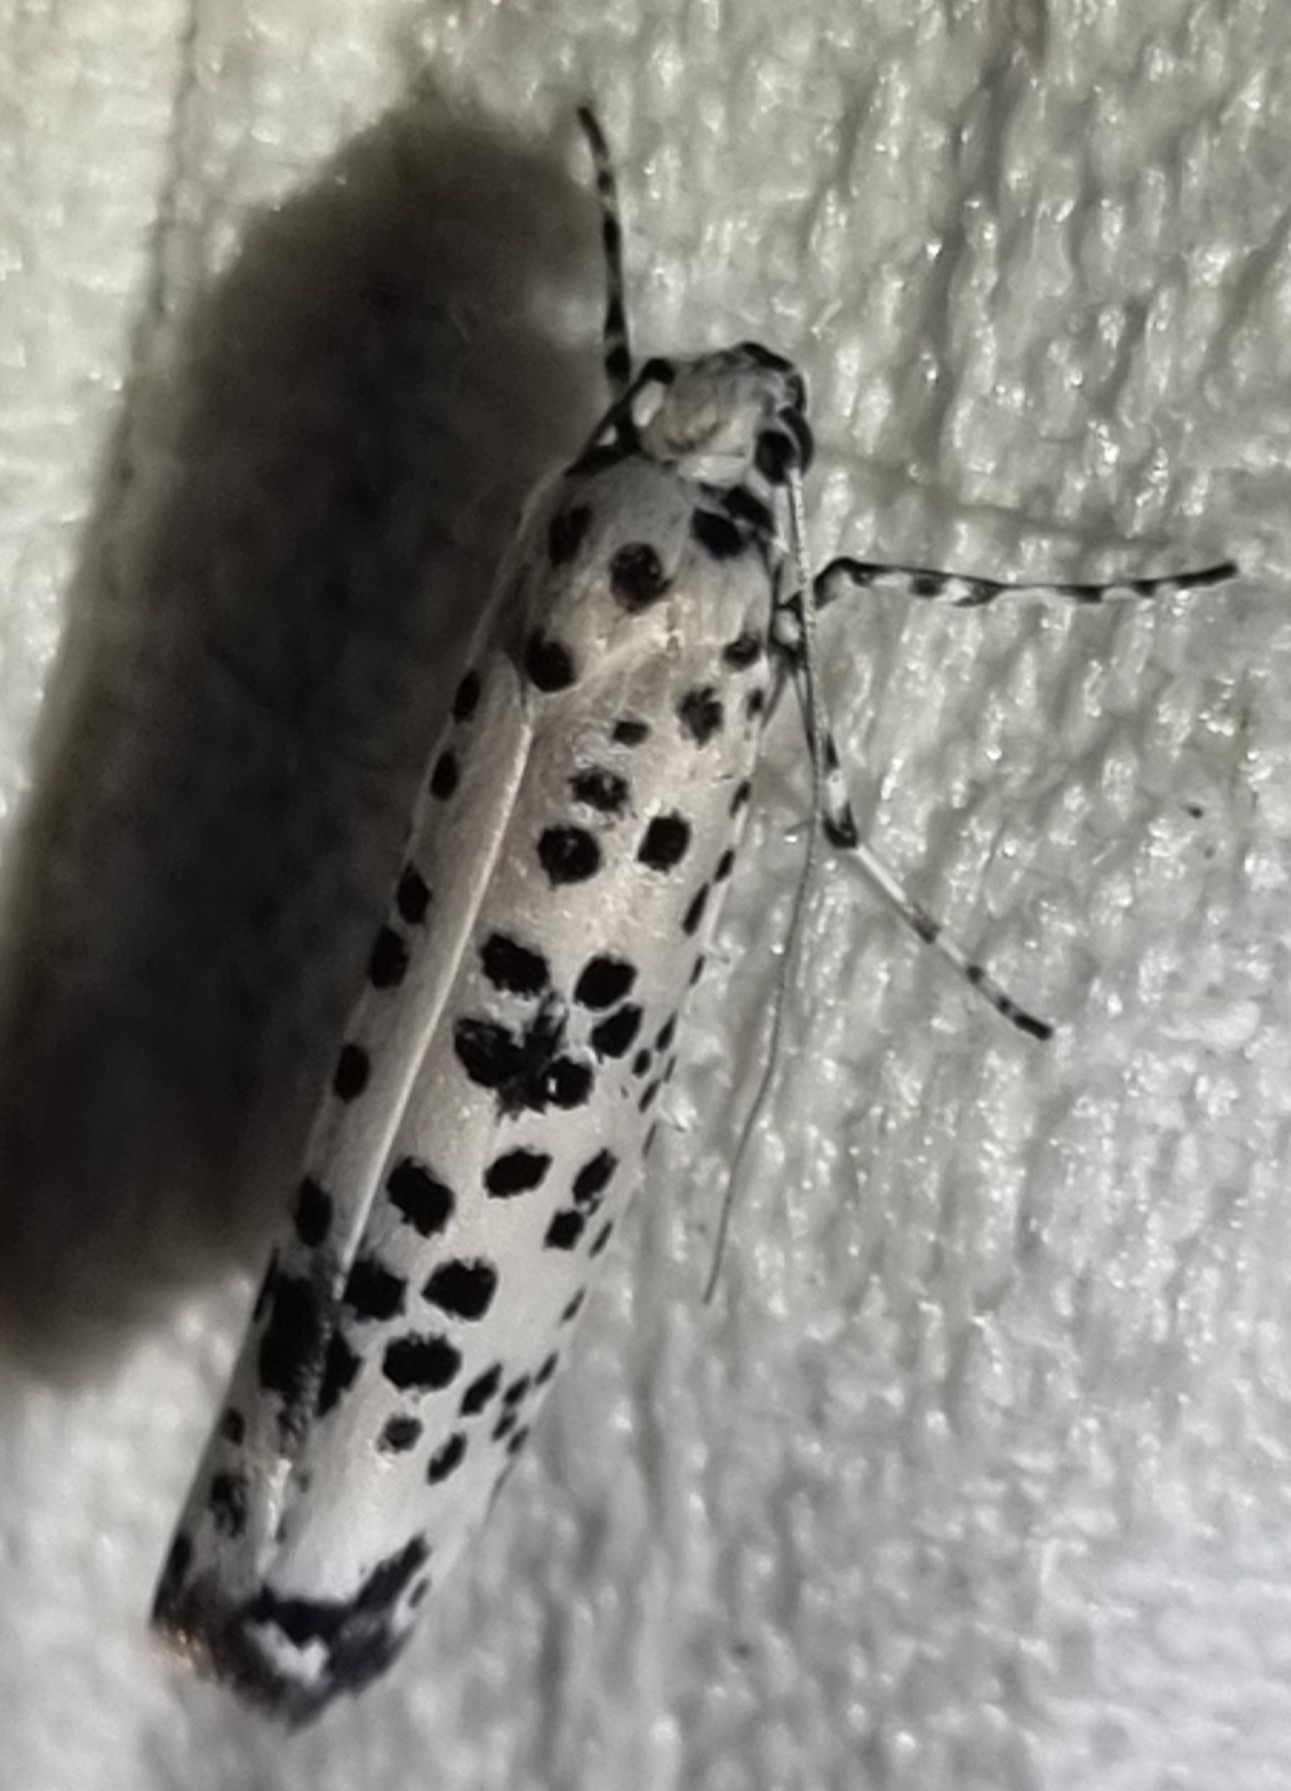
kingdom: Animalia
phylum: Arthropoda
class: Insecta
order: Lepidoptera
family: Ethmiidae
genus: Ethmia
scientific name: Ethmia clytodoxa
